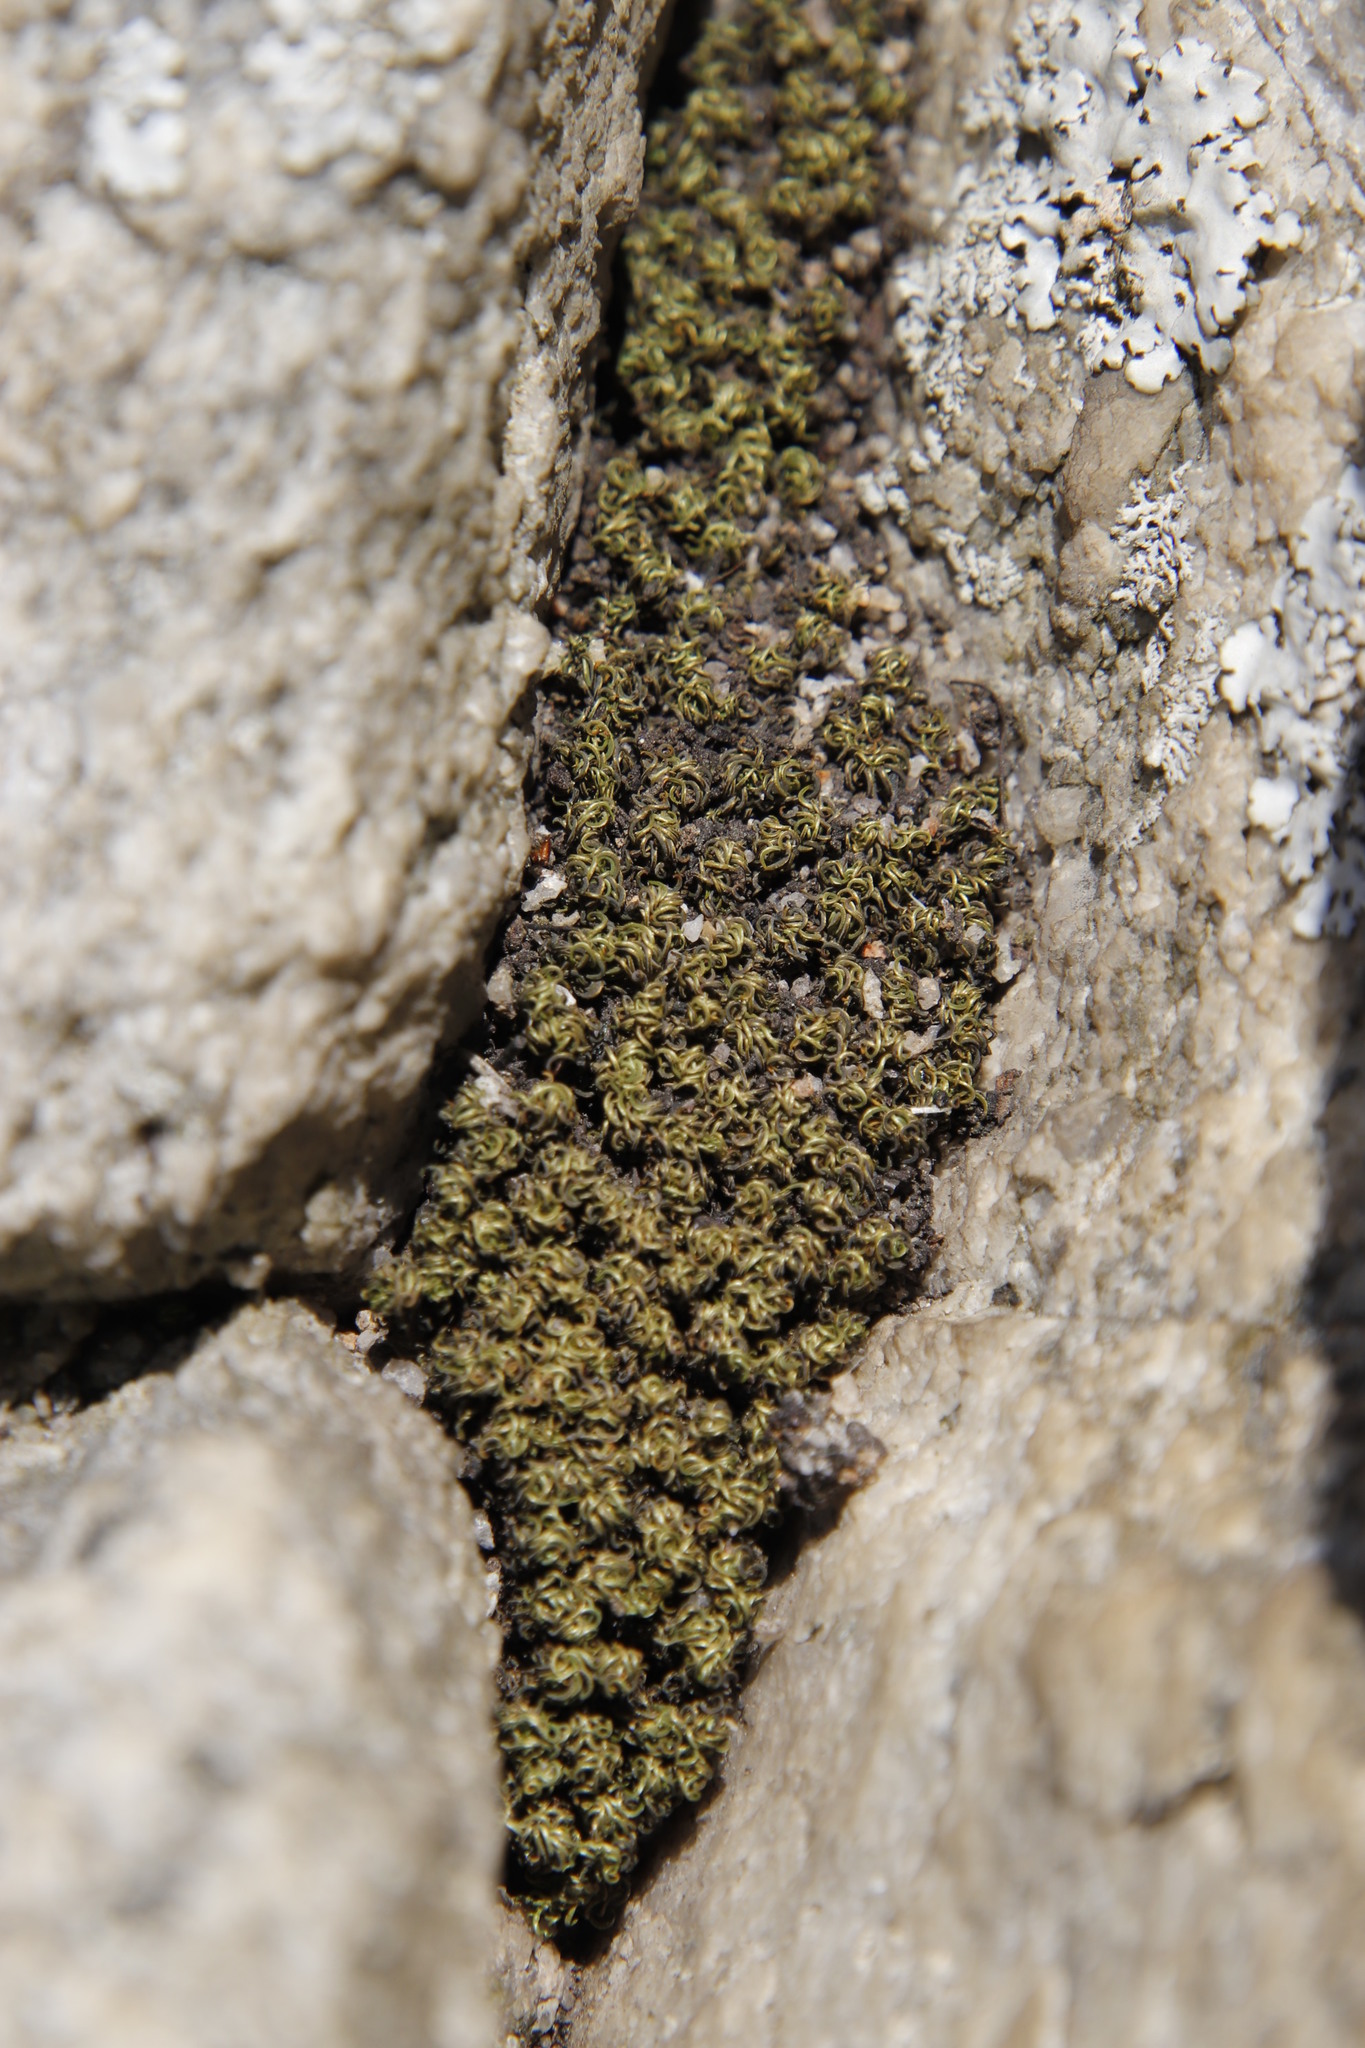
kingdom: Plantae
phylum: Bryophyta
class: Bryopsida
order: Dicranales
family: Hypodontiaceae
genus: Hypodontium
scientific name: Hypodontium dregei
